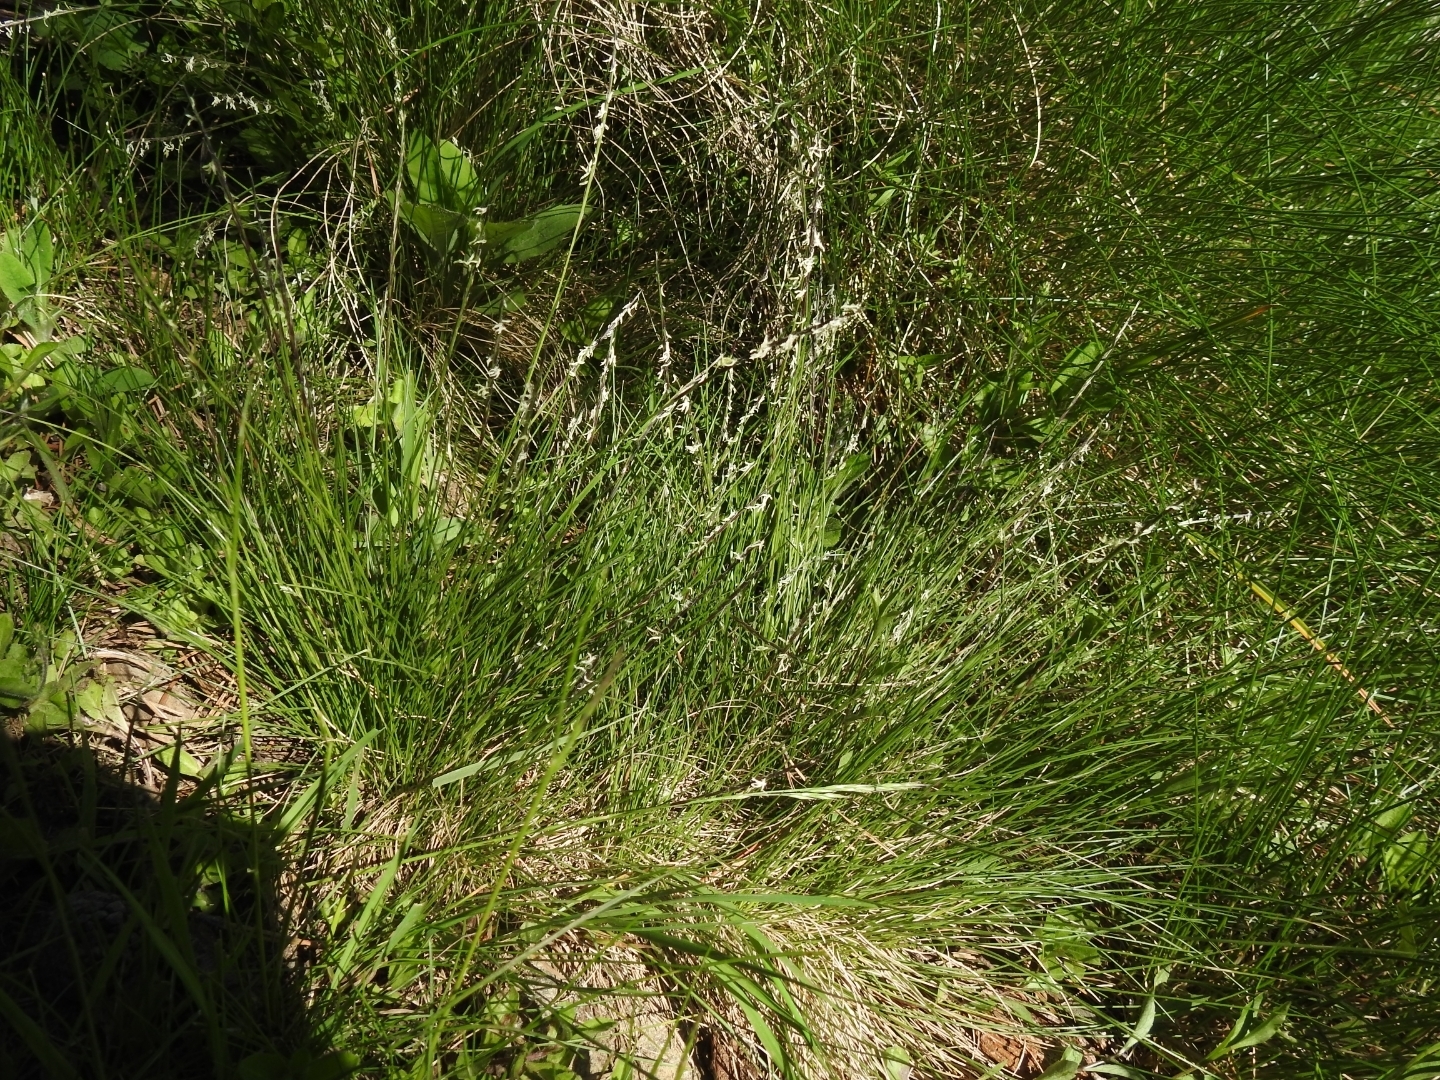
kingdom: Plantae
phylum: Tracheophyta
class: Liliopsida
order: Poales
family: Poaceae
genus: Nardus
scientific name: Nardus stricta
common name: Mat-grass
